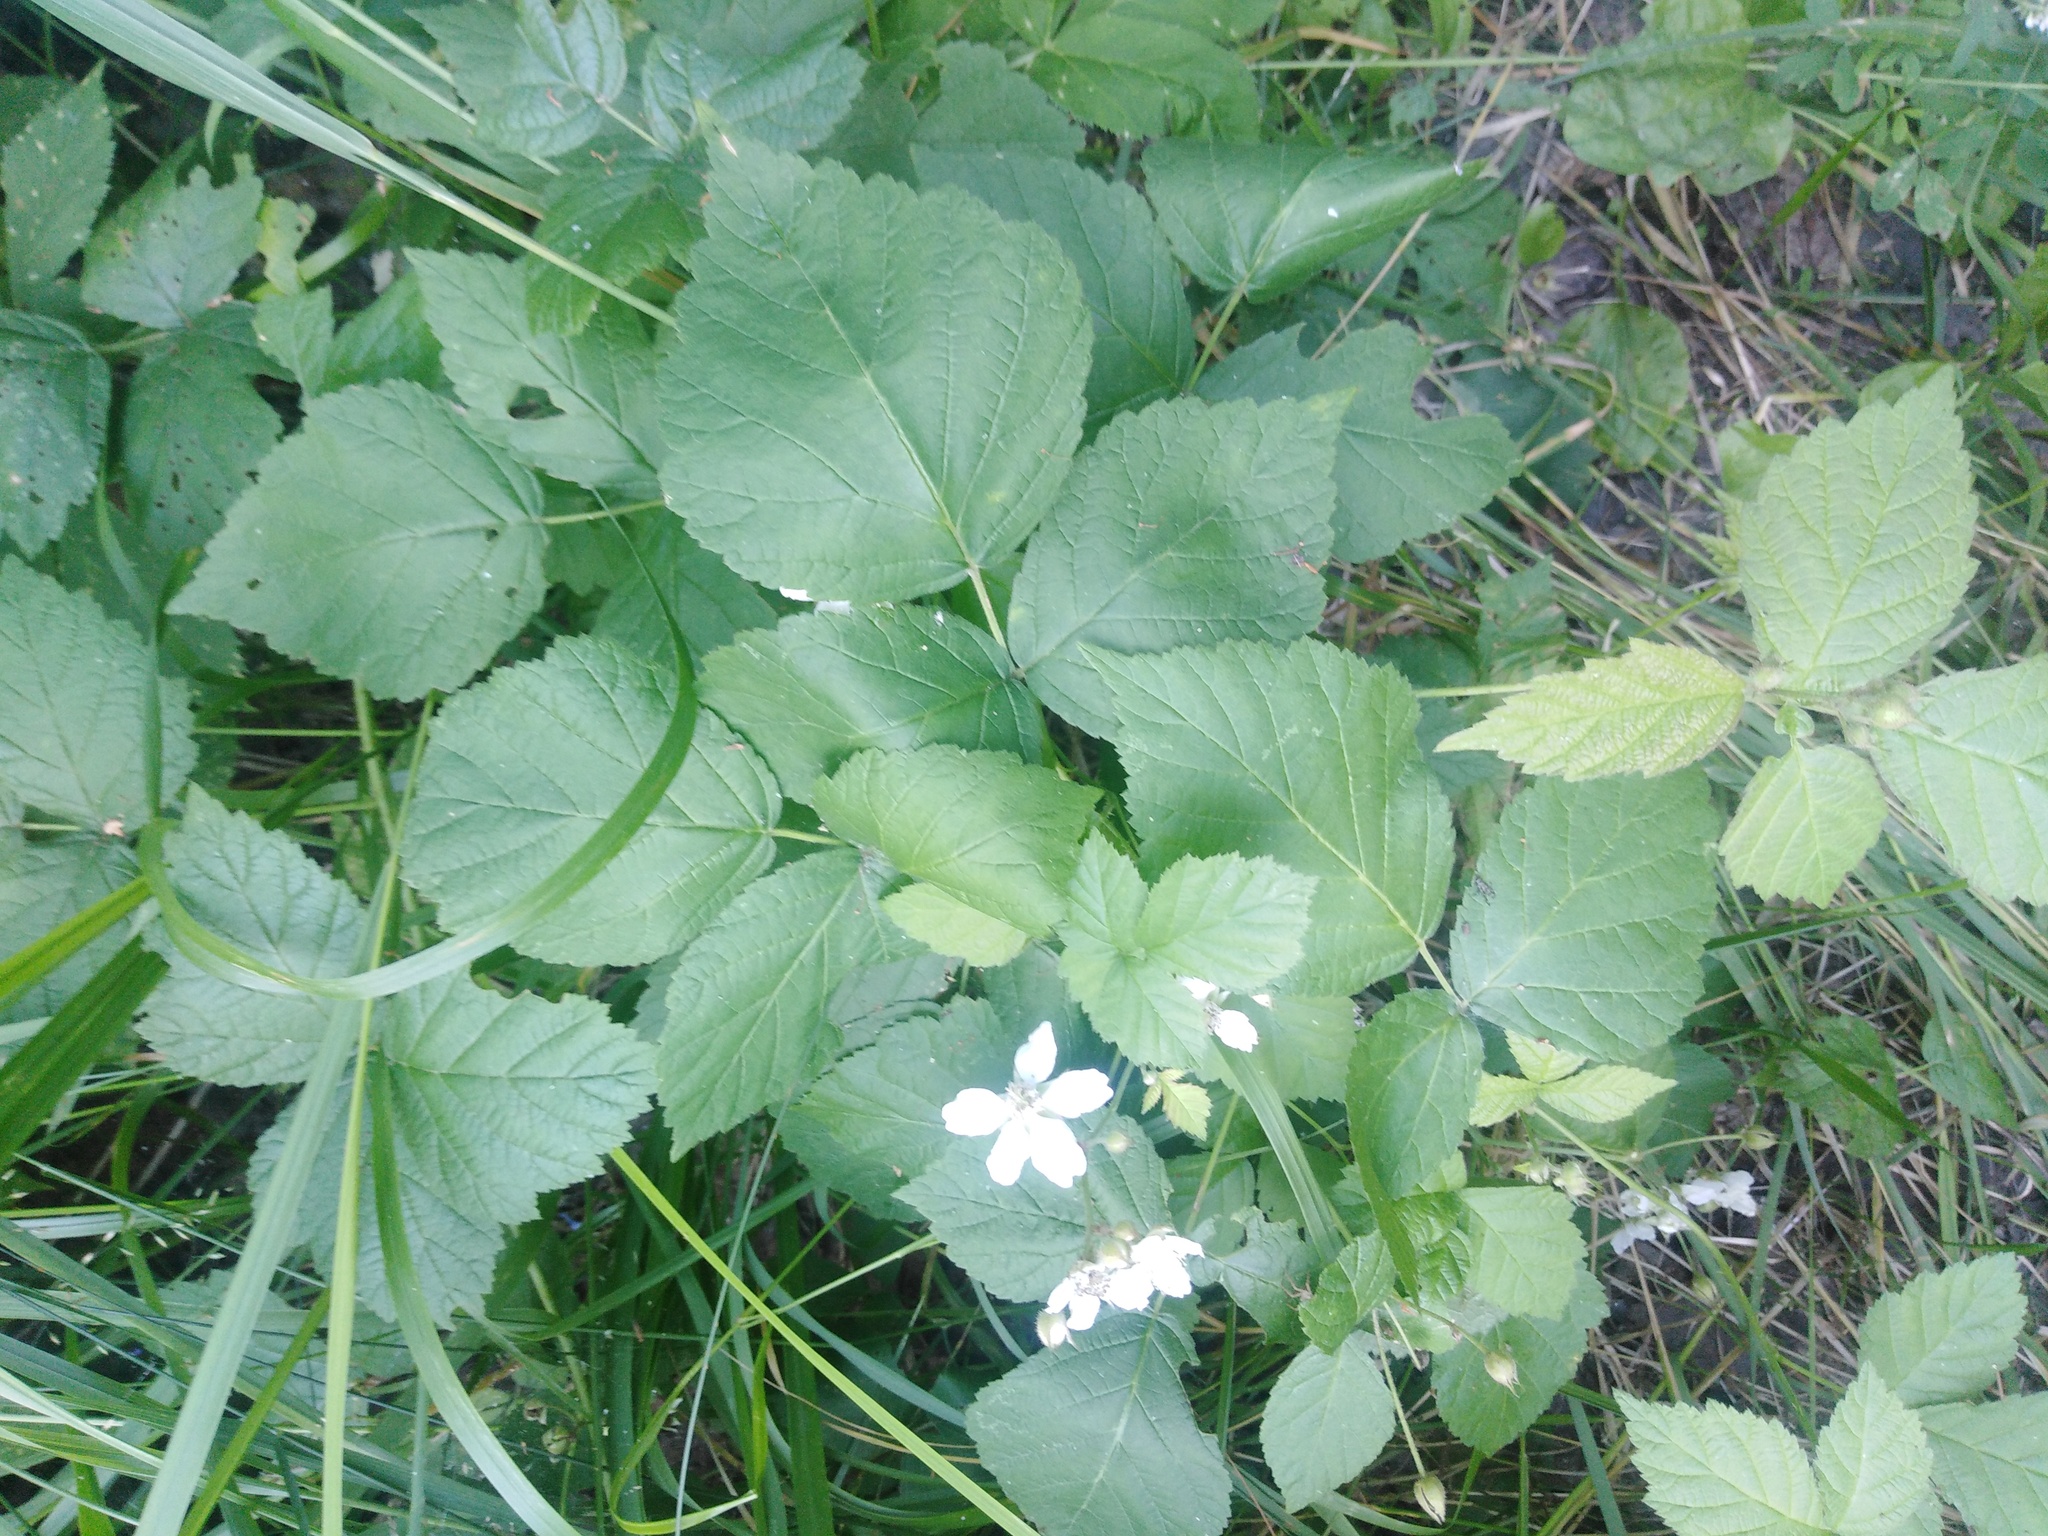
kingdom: Plantae
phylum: Tracheophyta
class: Magnoliopsida
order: Rosales
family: Rosaceae
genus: Rubus
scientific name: Rubus caesius
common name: Dewberry
